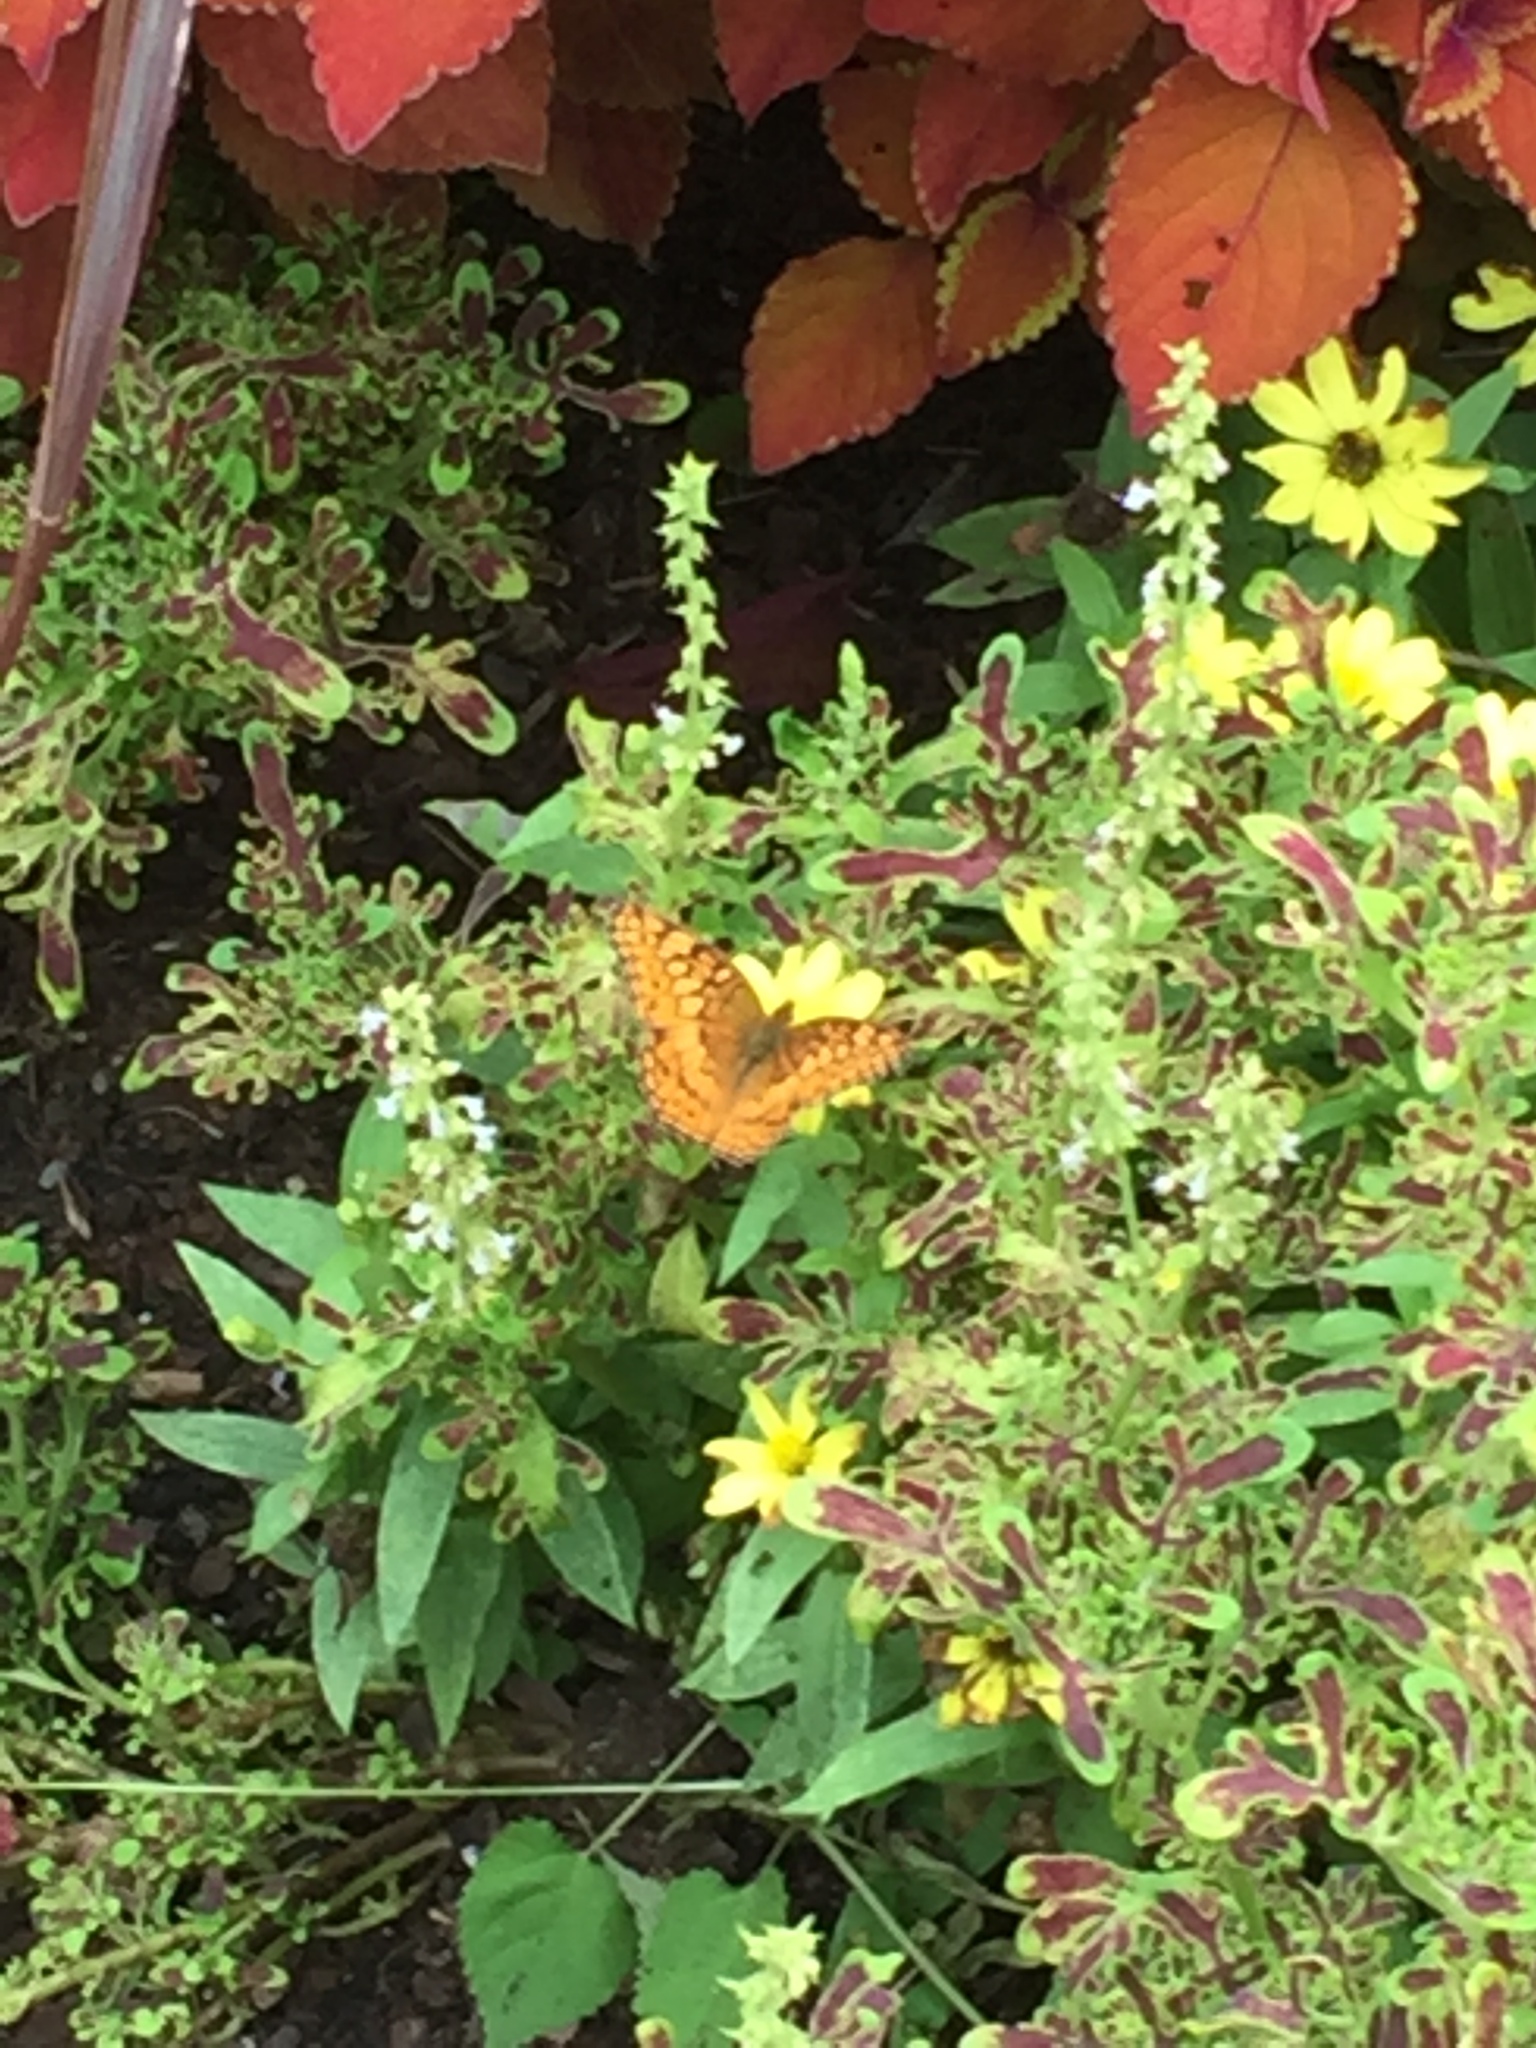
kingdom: Animalia
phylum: Arthropoda
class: Insecta
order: Lepidoptera
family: Nymphalidae
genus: Euptoieta
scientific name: Euptoieta claudia
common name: Variegated fritillary
